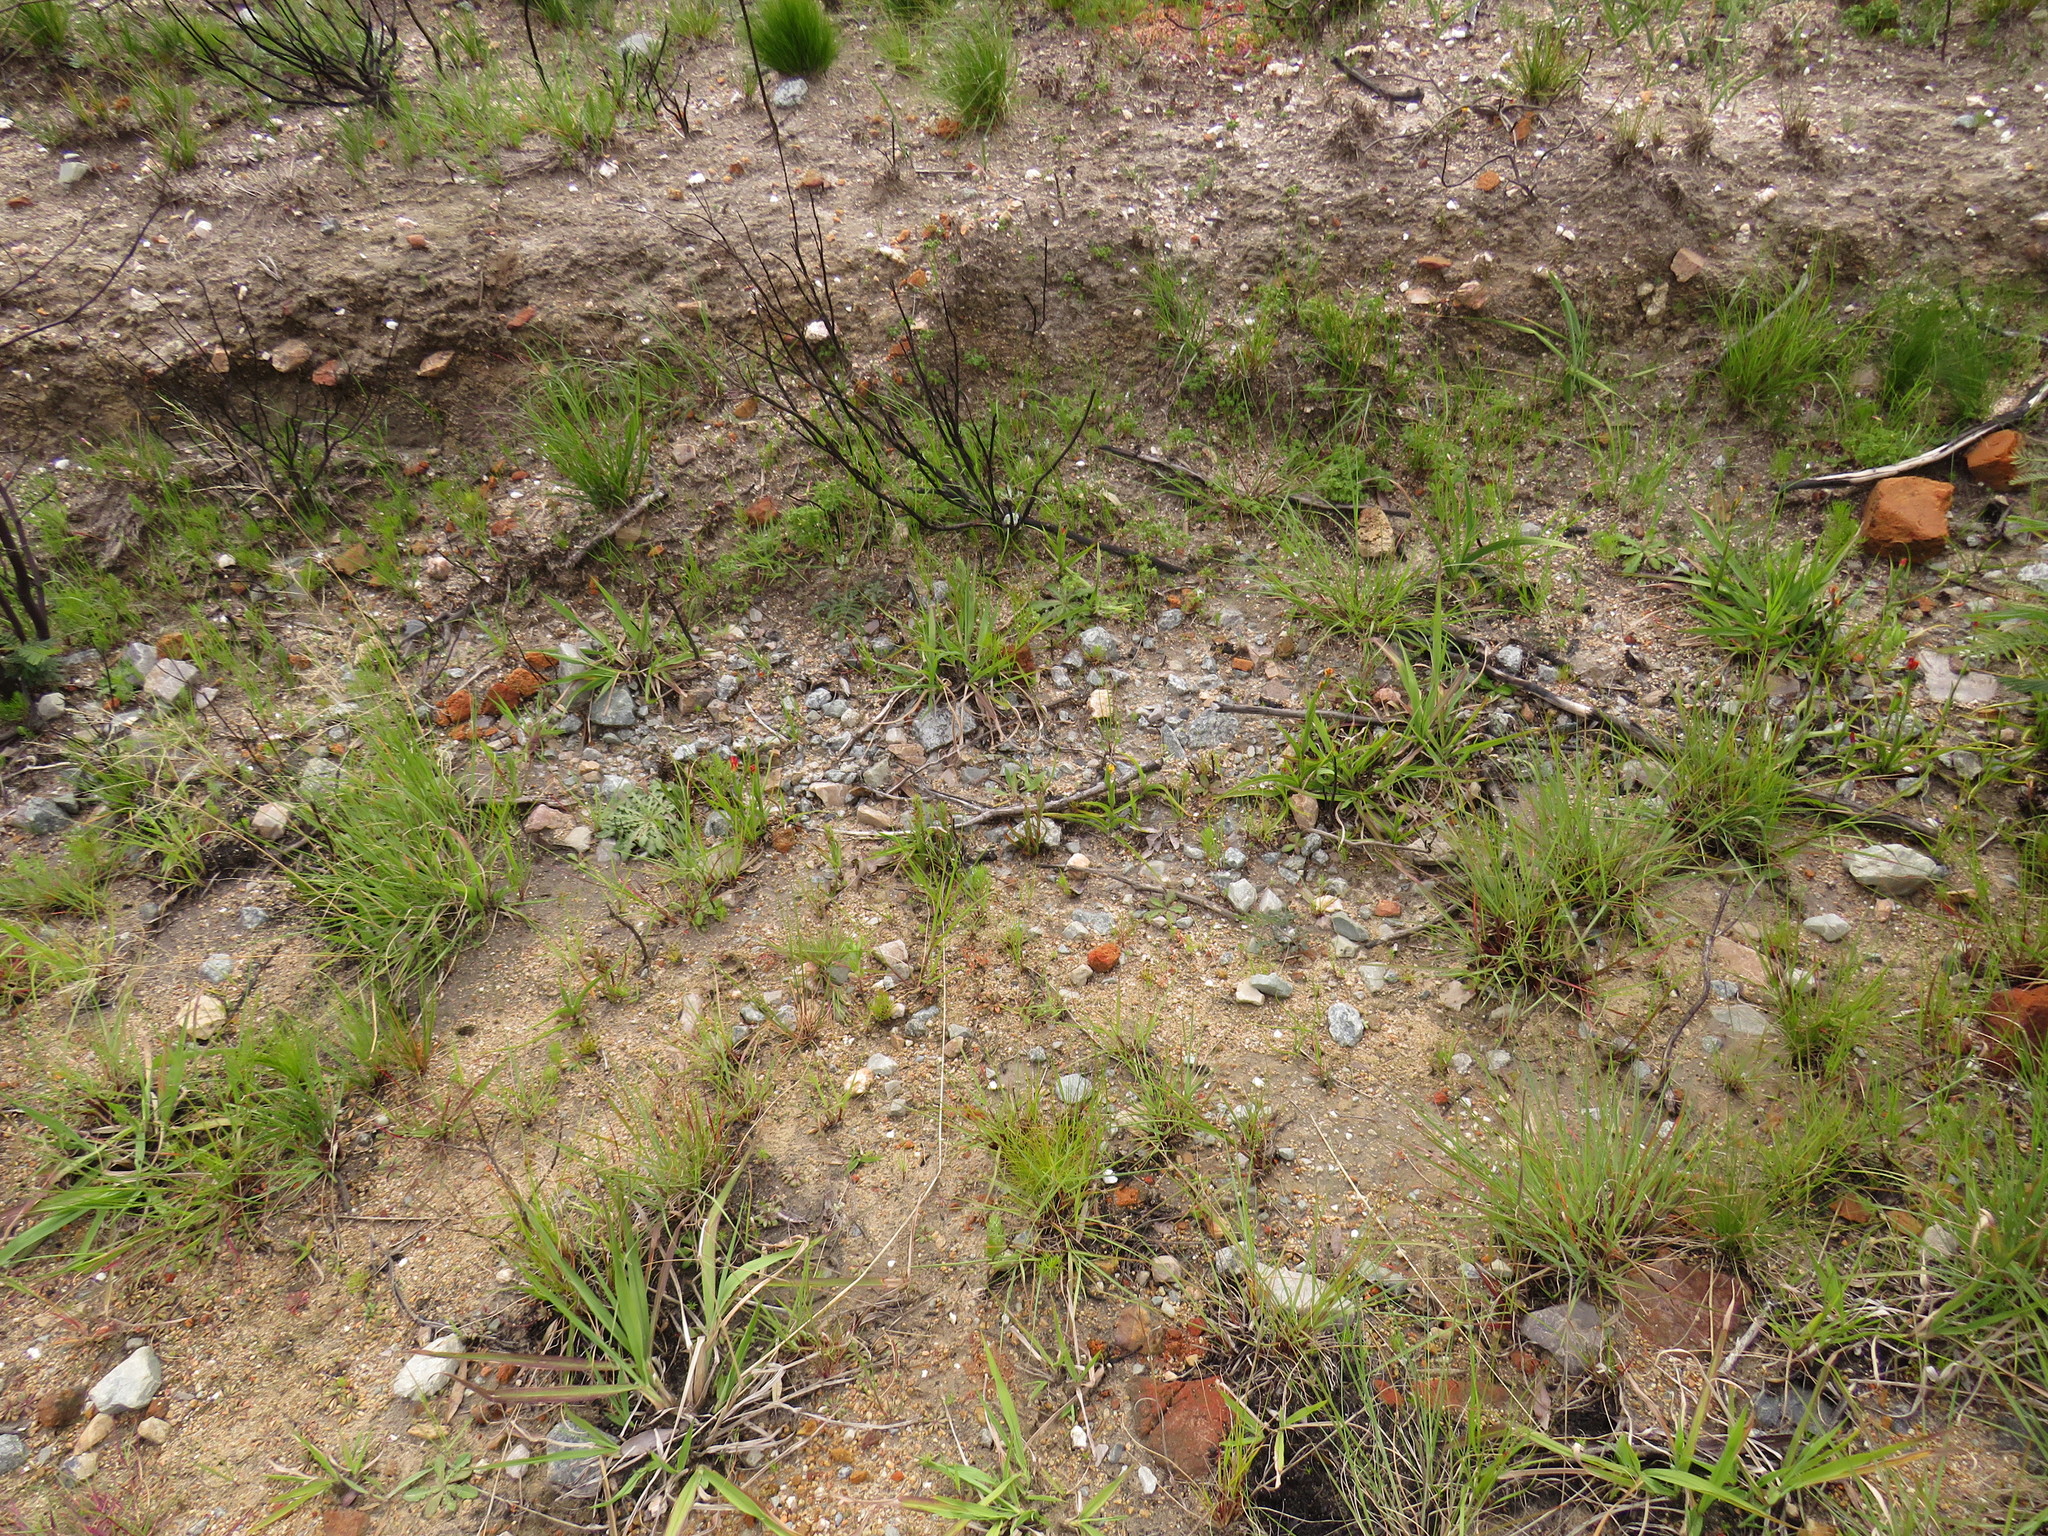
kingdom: Plantae
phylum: Tracheophyta
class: Liliopsida
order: Asparagales
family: Orchidaceae
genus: Disa
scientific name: Disa bracteata
